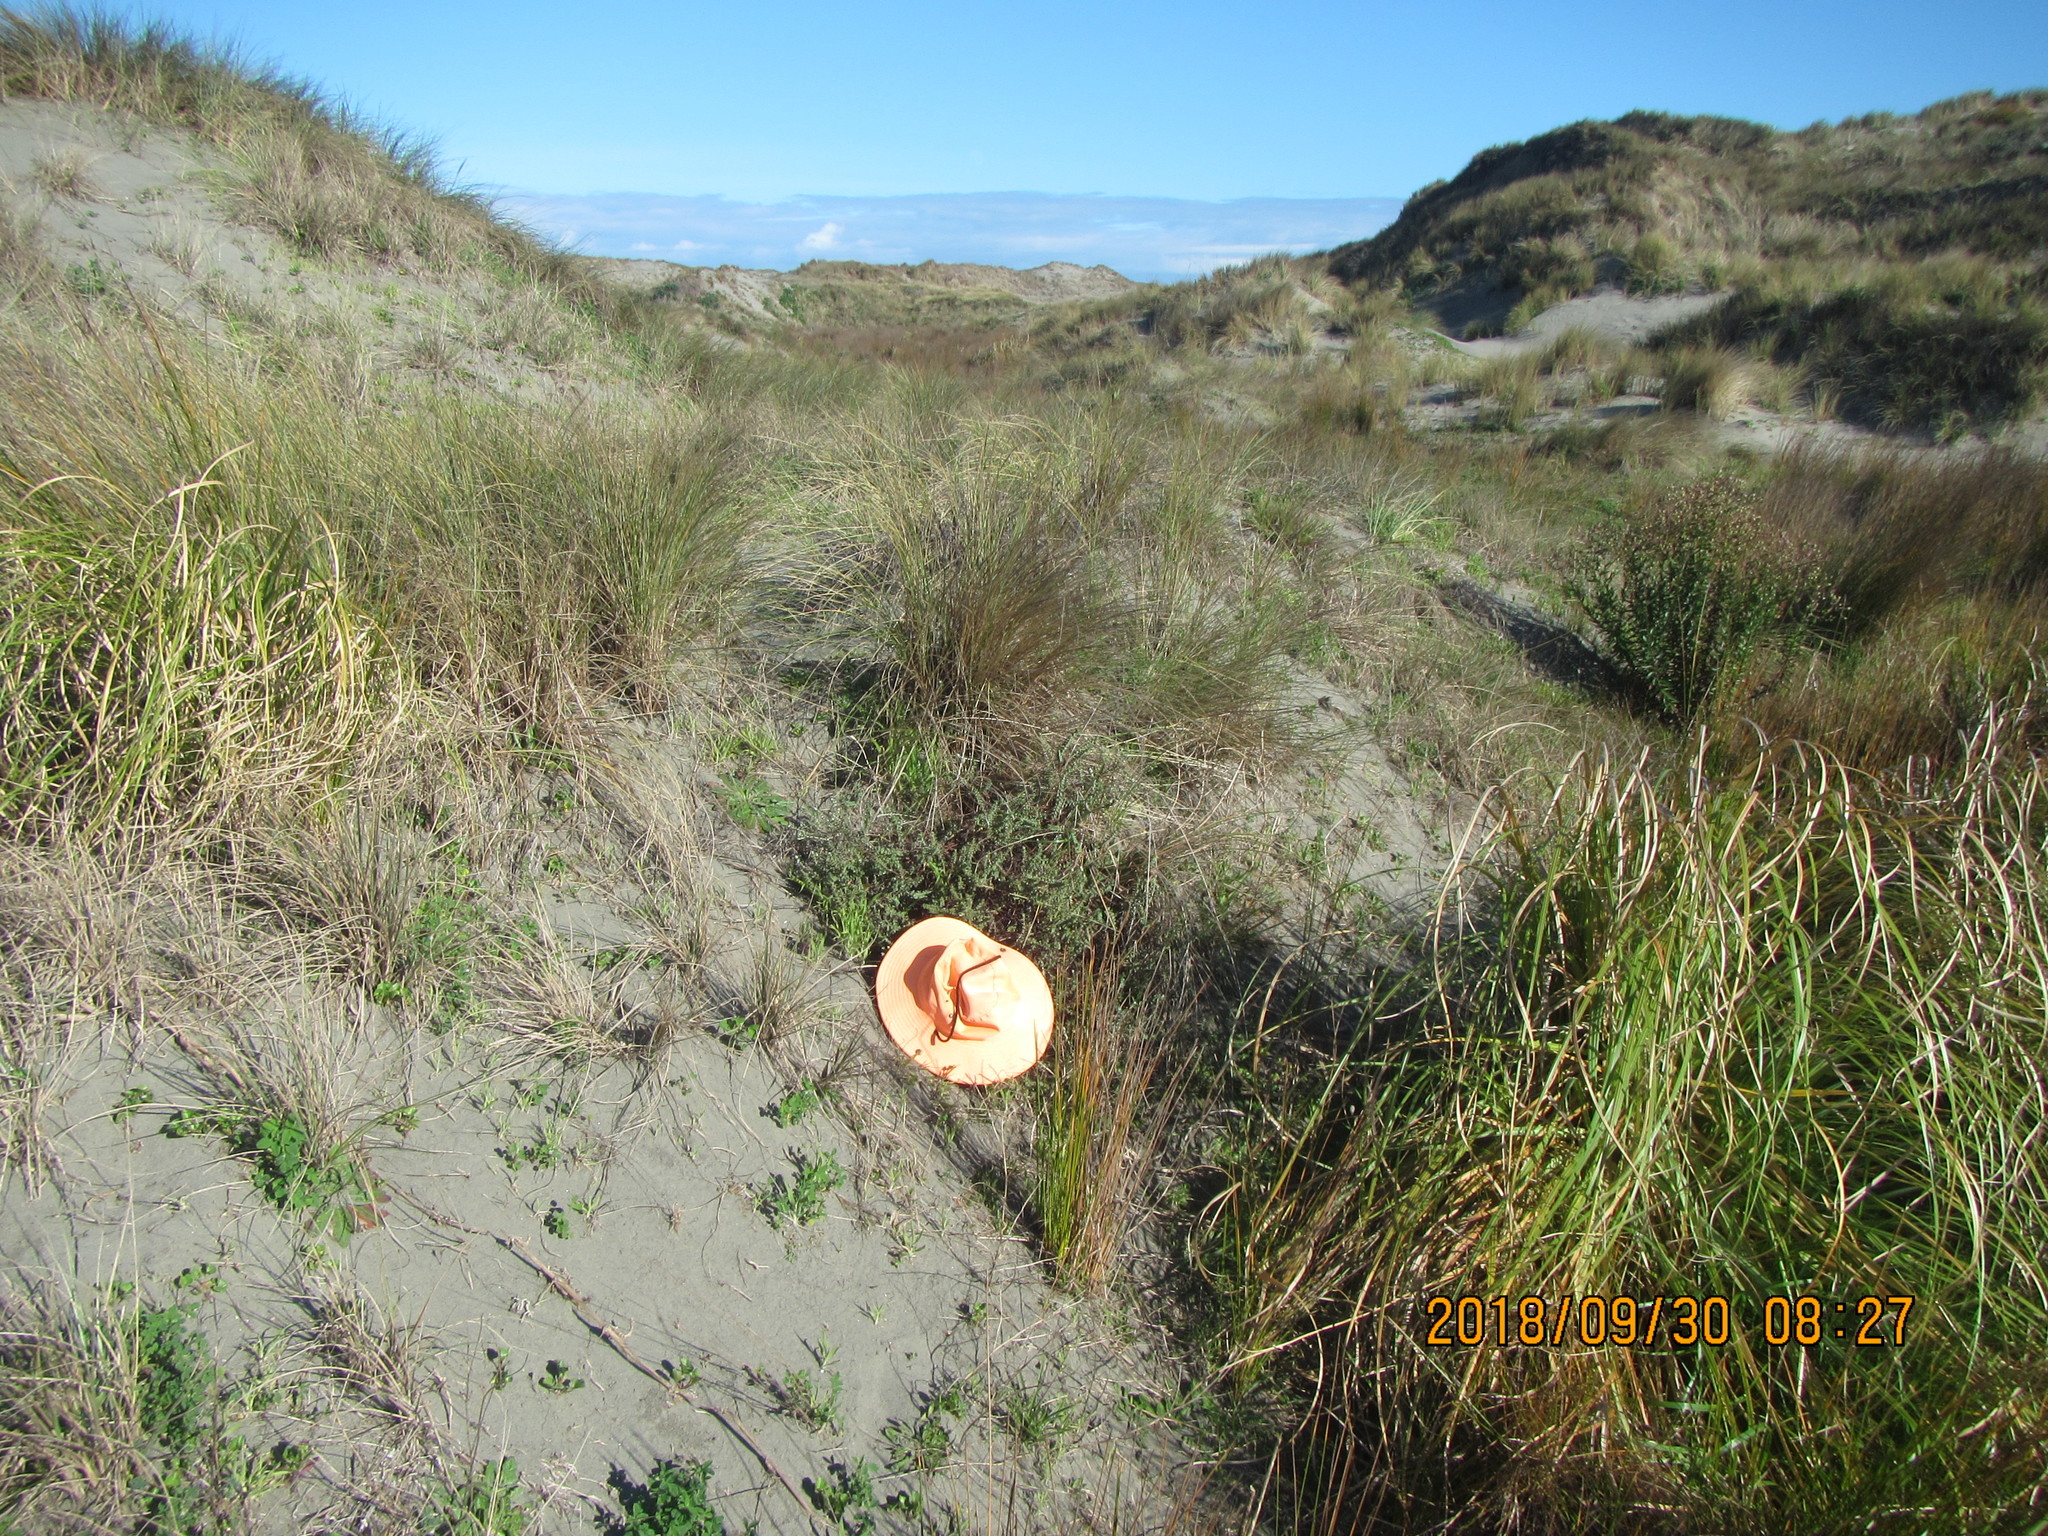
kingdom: Animalia
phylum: Arthropoda
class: Arachnida
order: Araneae
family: Theridiidae
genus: Latrodectus
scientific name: Latrodectus katipo
